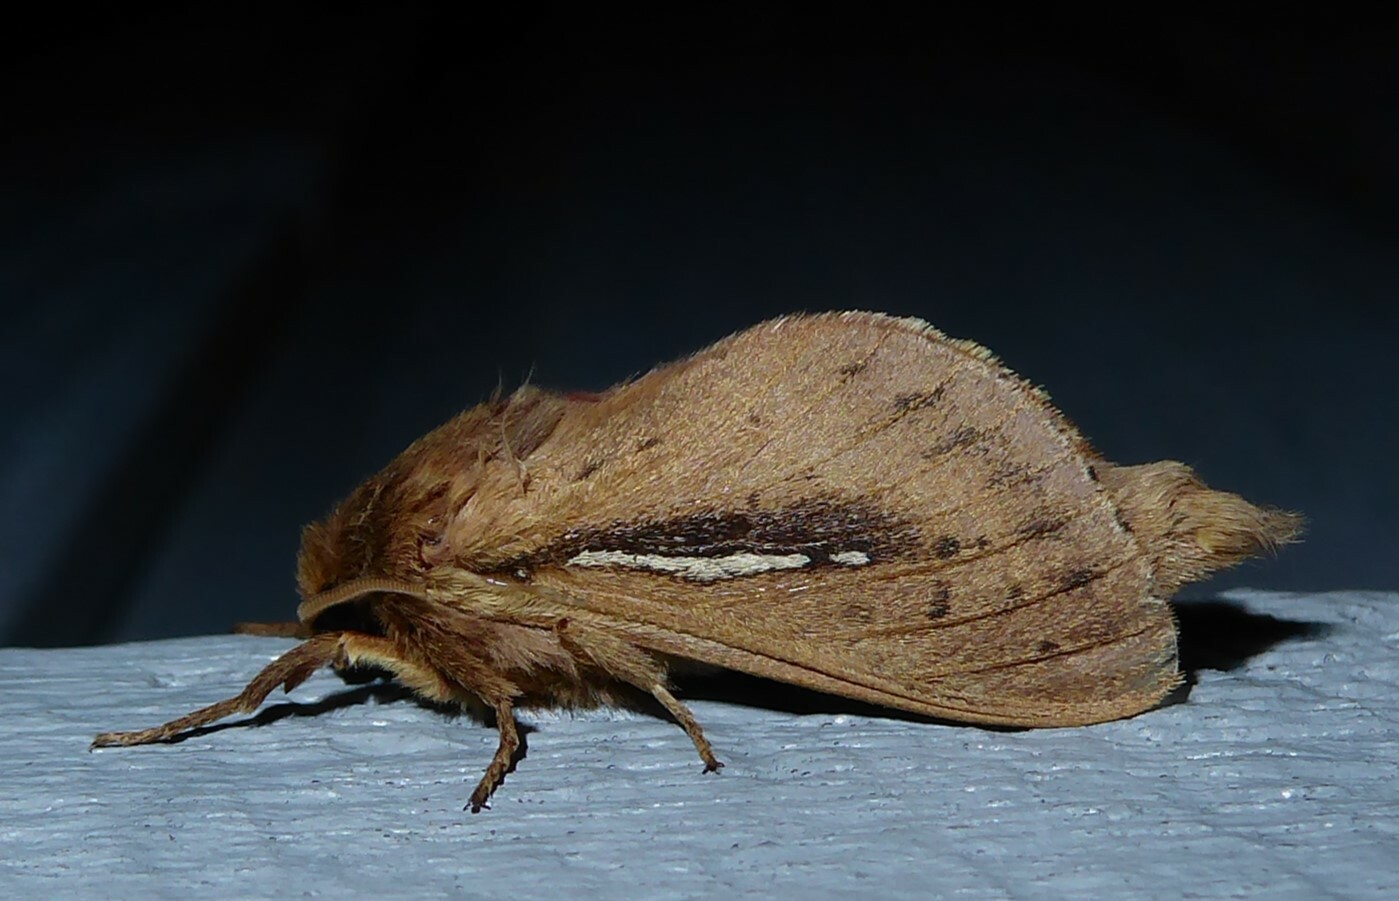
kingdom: Animalia
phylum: Arthropoda
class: Insecta
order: Lepidoptera
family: Hepialidae
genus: Wiseana
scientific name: Wiseana umbraculatus
